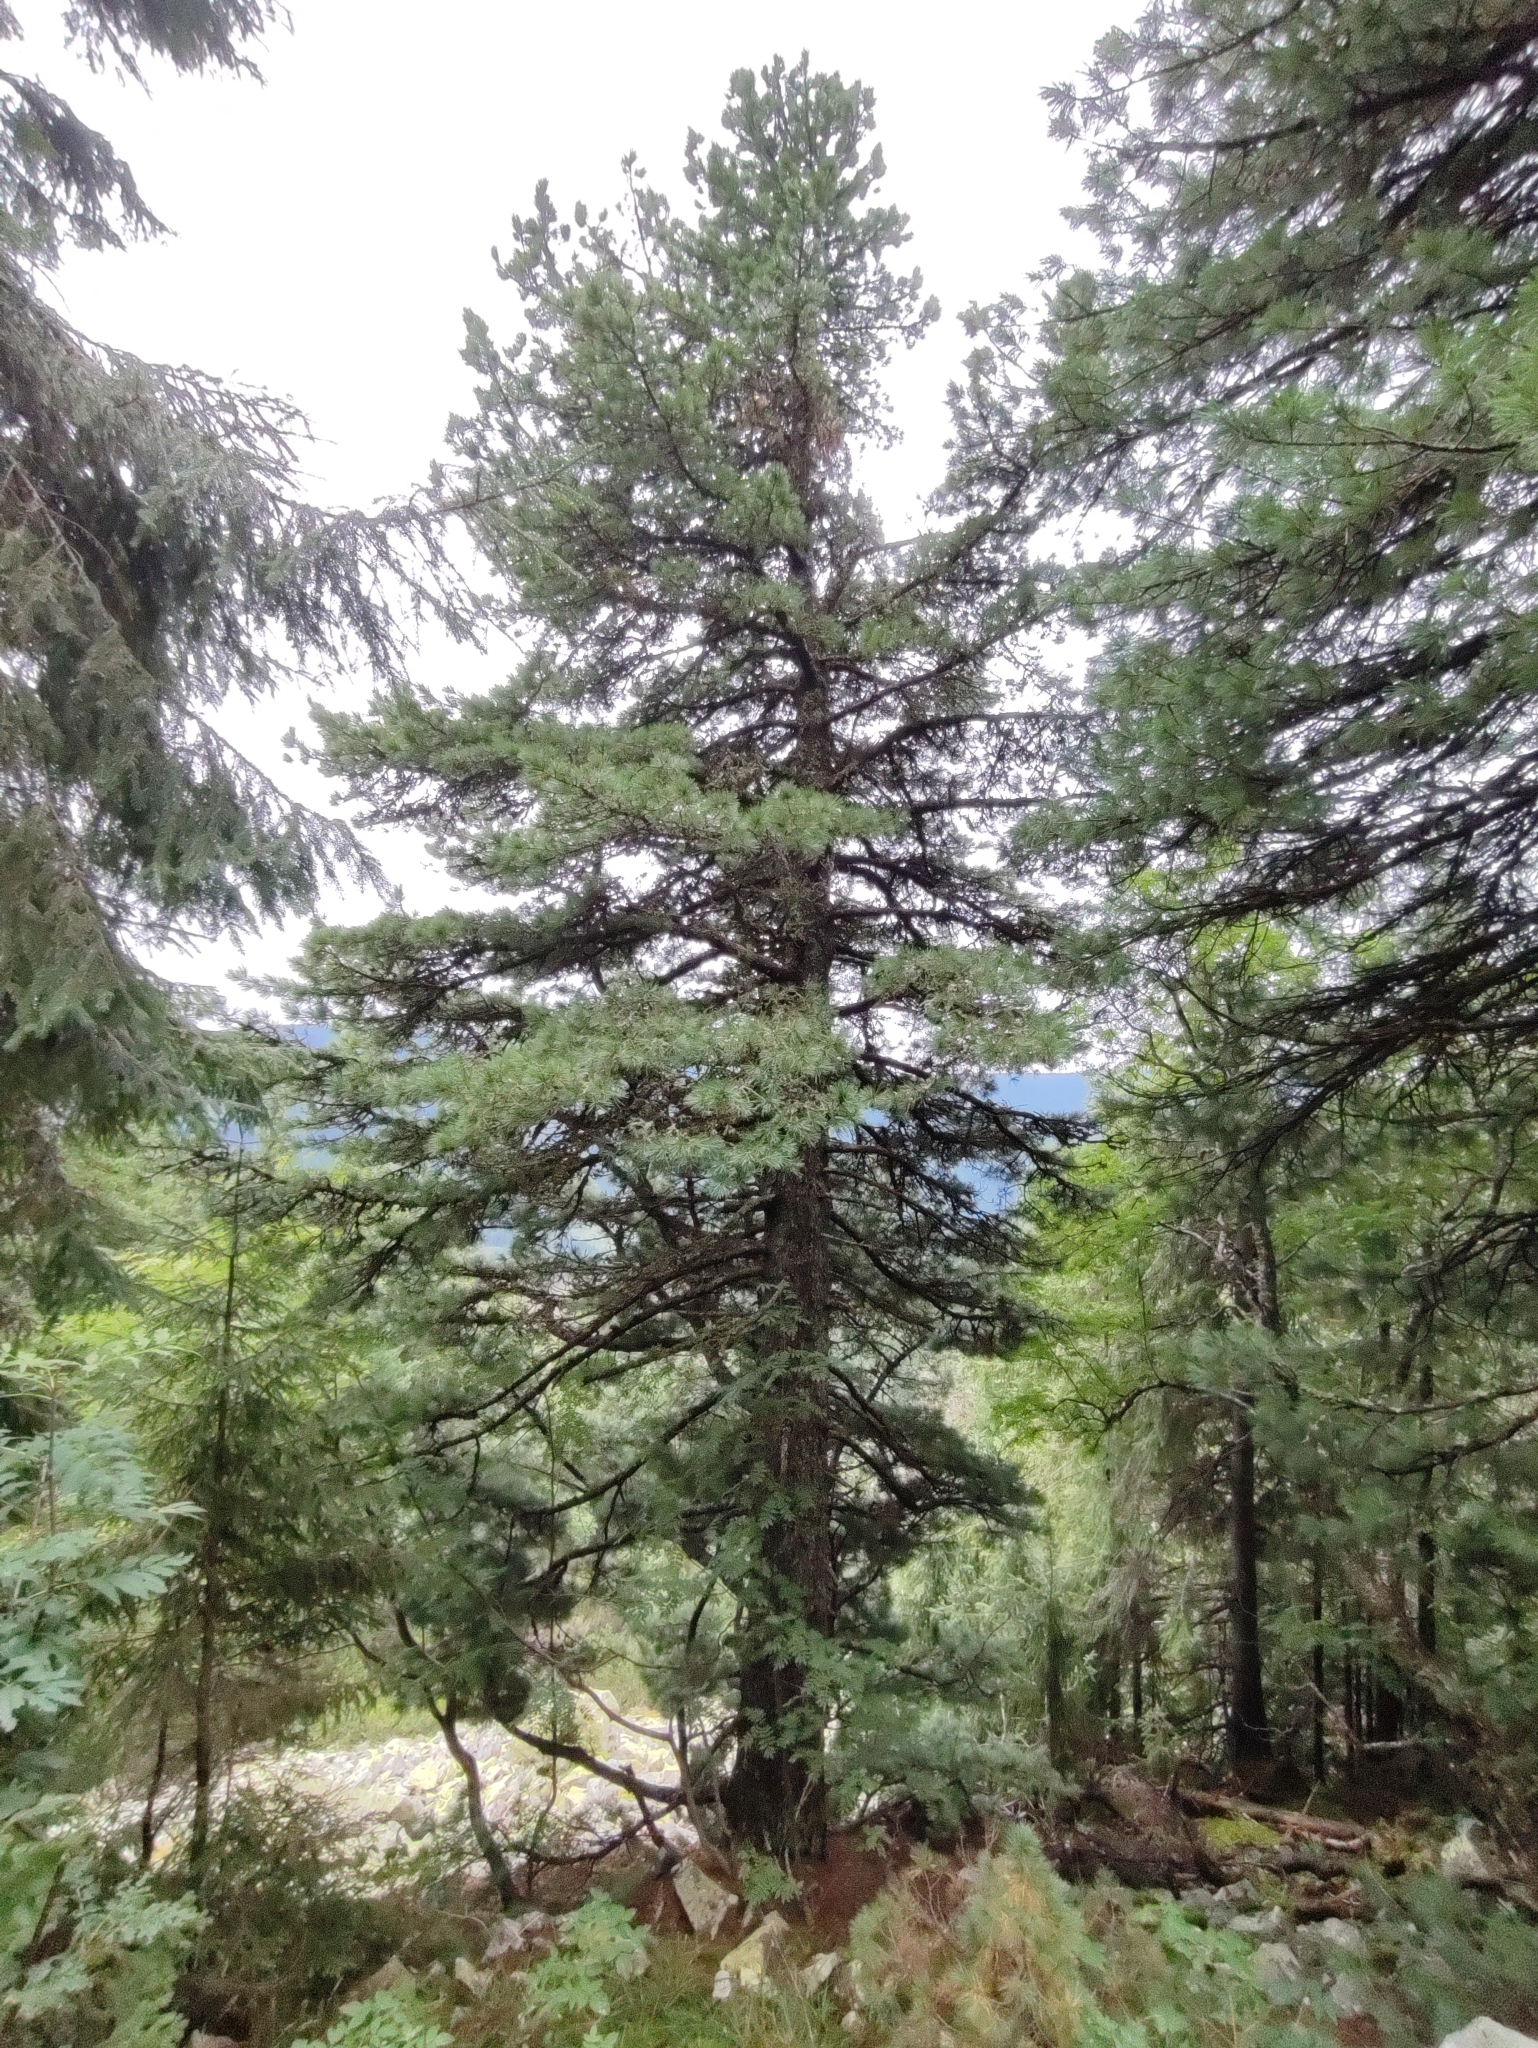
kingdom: Plantae
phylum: Tracheophyta
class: Pinopsida
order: Pinales
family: Pinaceae
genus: Pinus
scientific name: Pinus cembra
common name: Arolla pine
